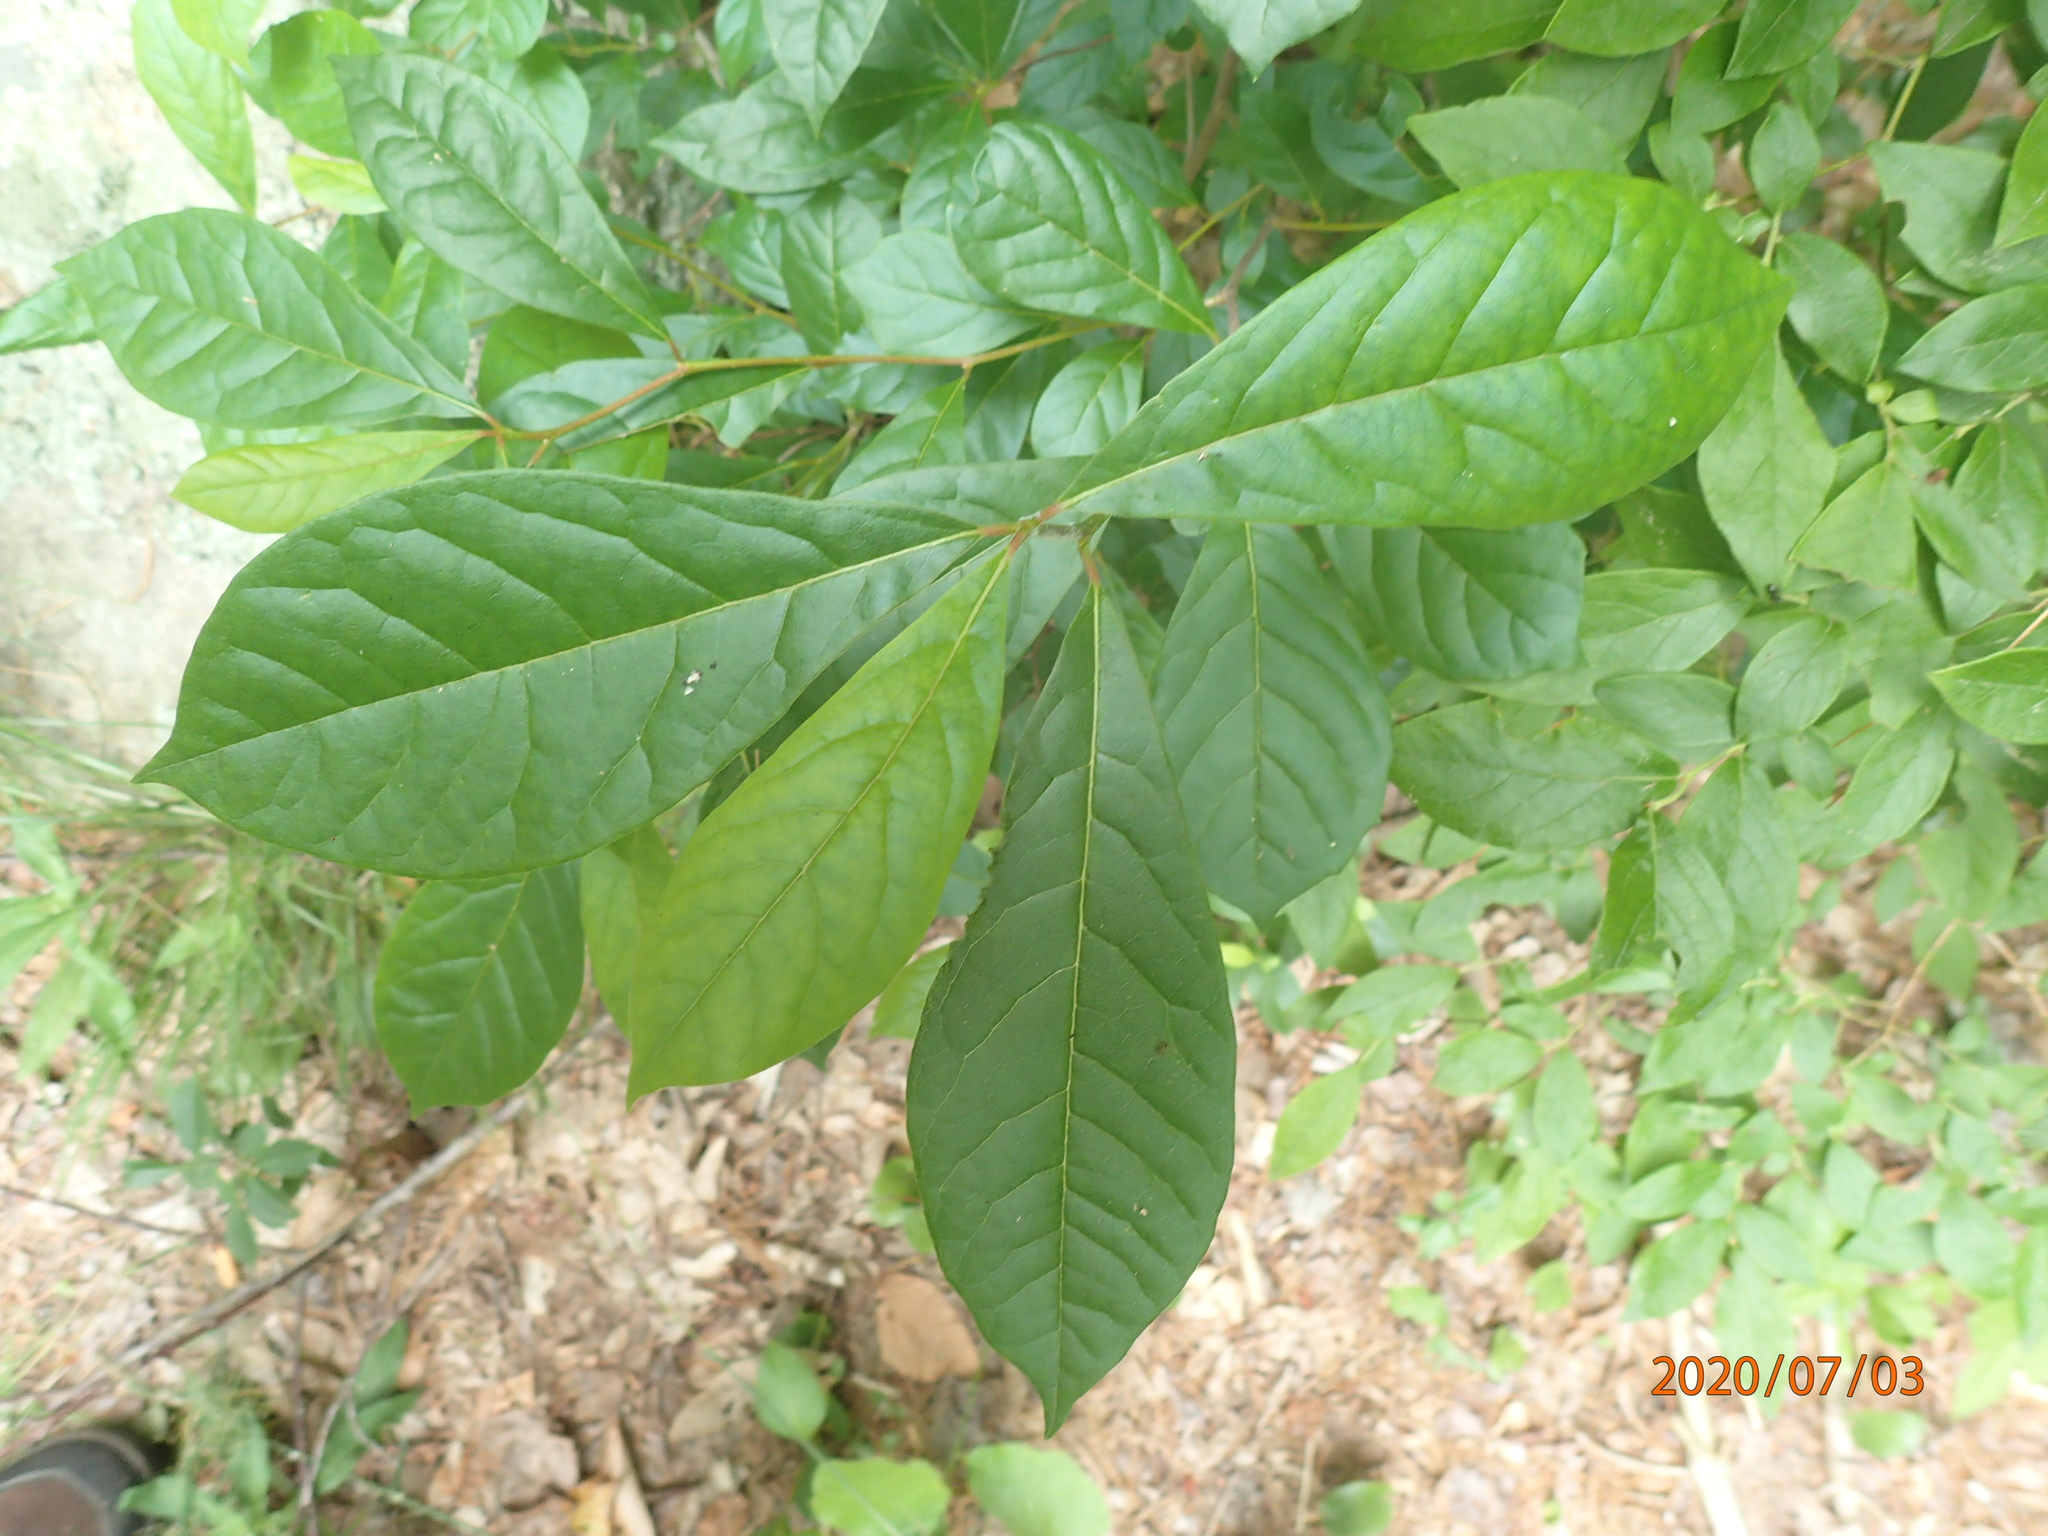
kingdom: Plantae
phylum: Tracheophyta
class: Magnoliopsida
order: Cornales
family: Nyssaceae
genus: Nyssa
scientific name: Nyssa sylvatica
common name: Black tupelo
